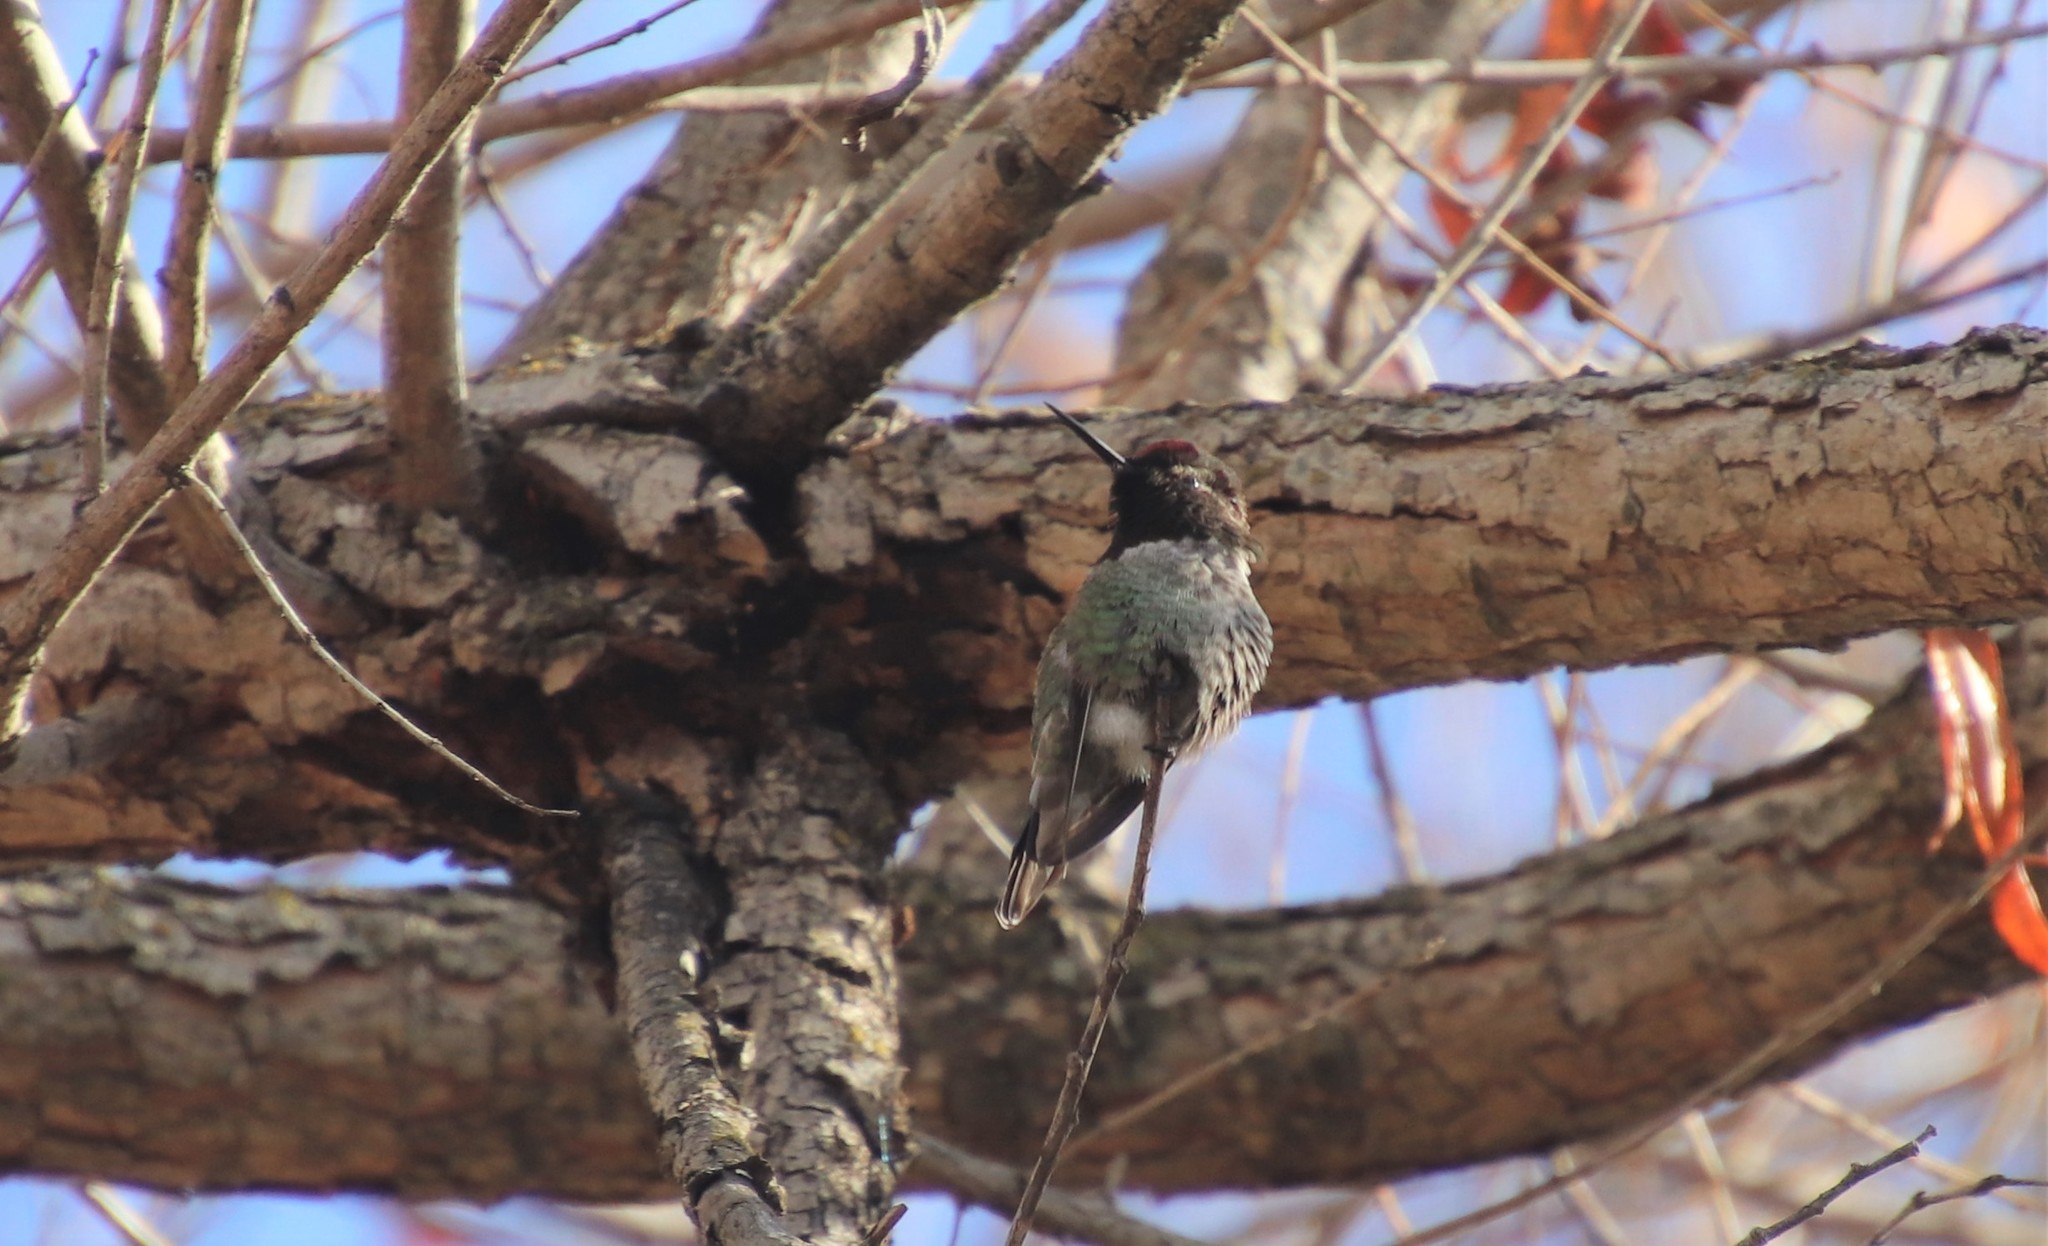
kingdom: Animalia
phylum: Chordata
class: Aves
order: Apodiformes
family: Trochilidae
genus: Calypte
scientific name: Calypte anna
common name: Anna's hummingbird
